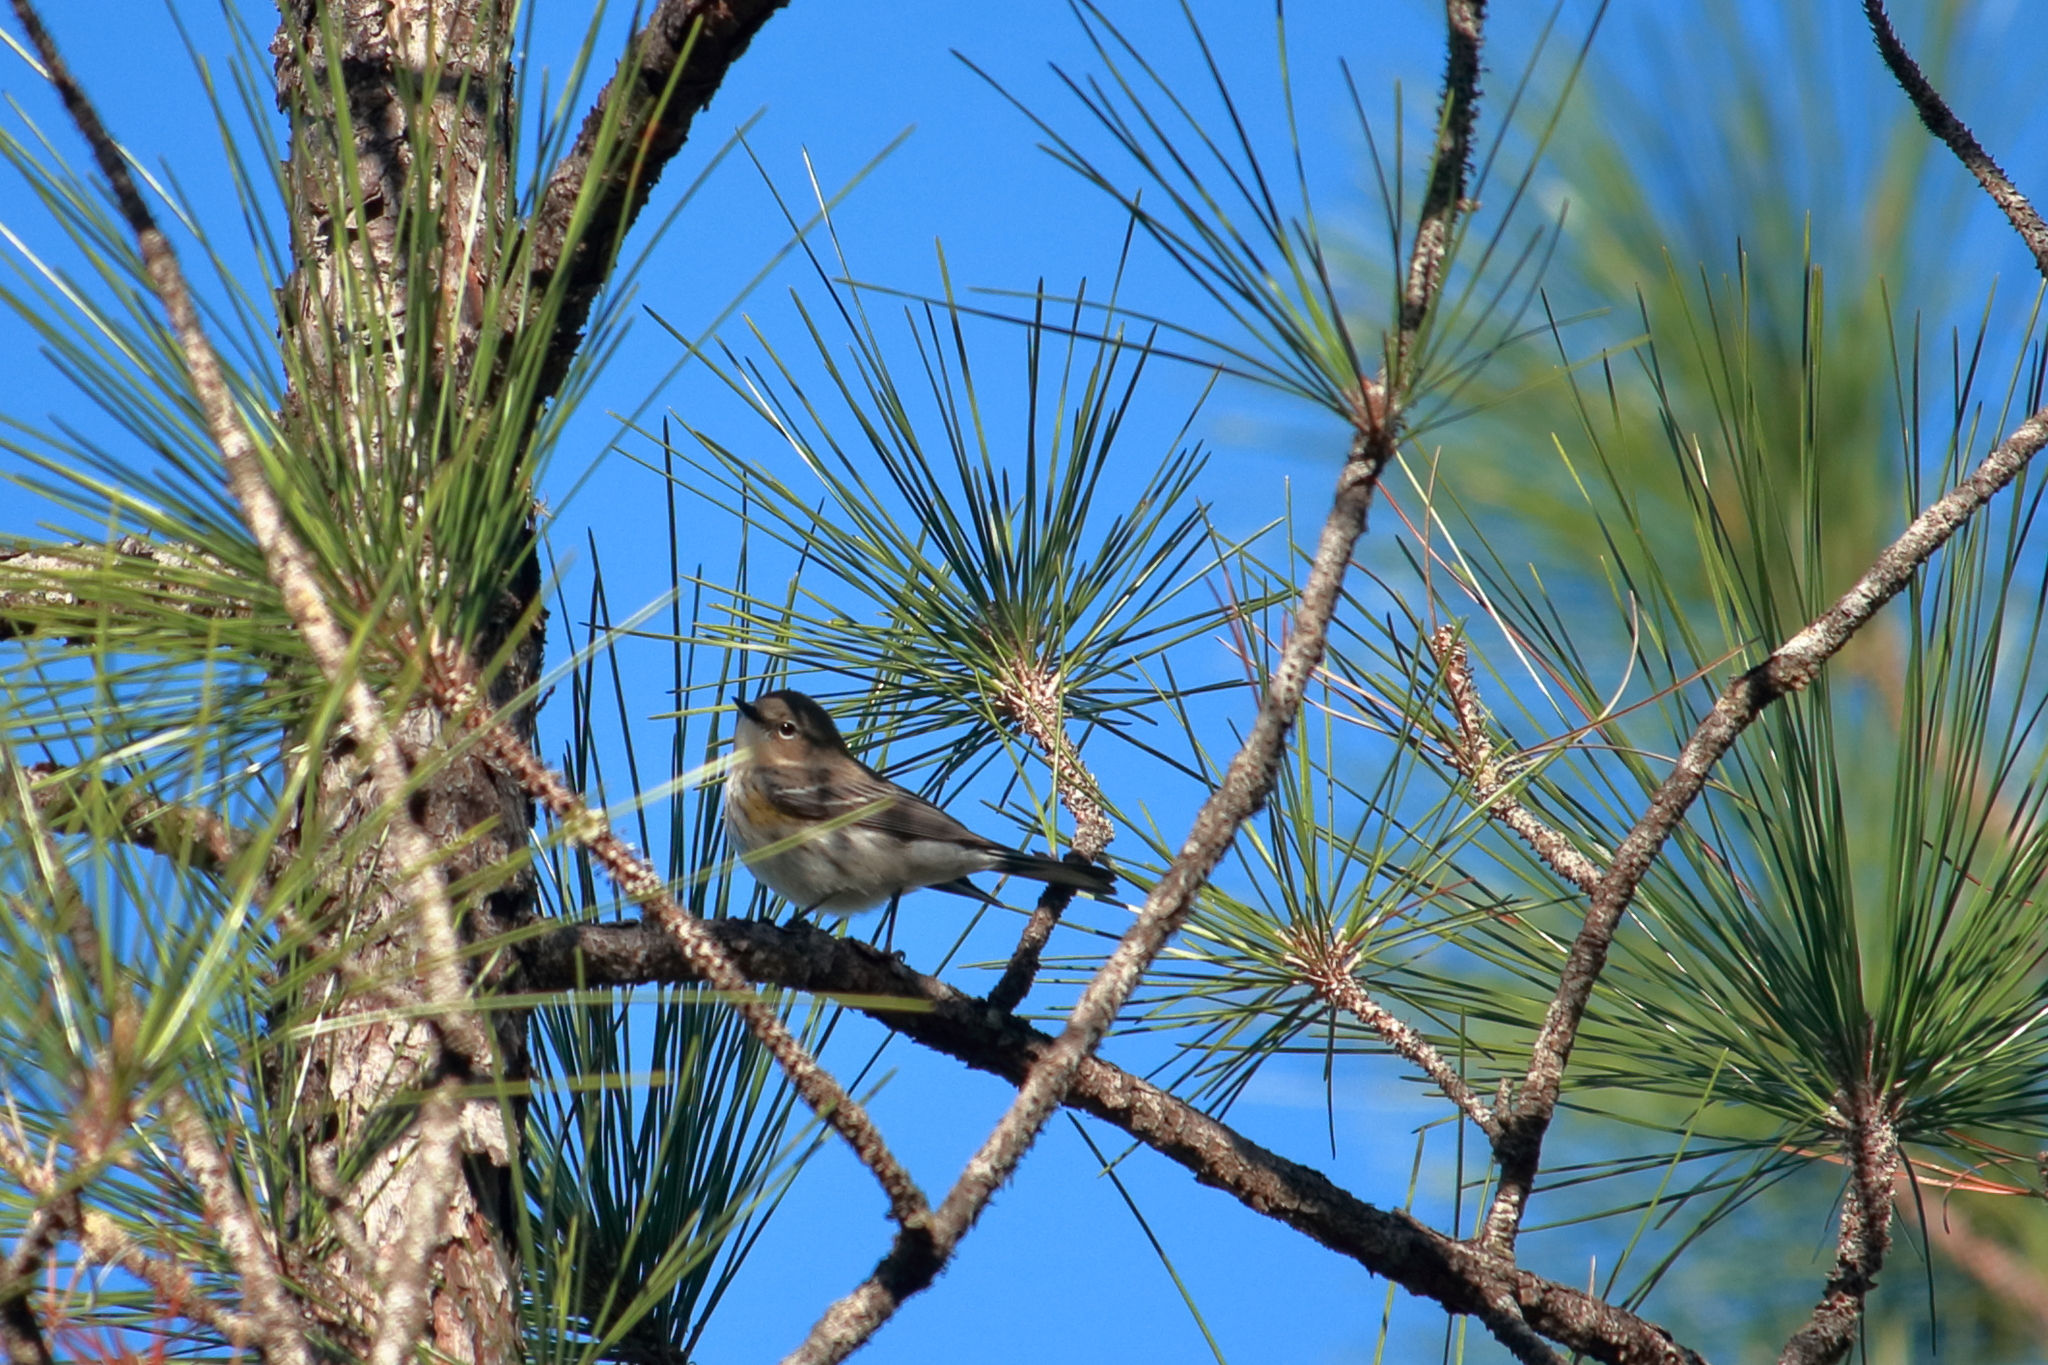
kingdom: Animalia
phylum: Chordata
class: Aves
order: Passeriformes
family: Parulidae
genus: Setophaga
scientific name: Setophaga coronata
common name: Myrtle warbler
